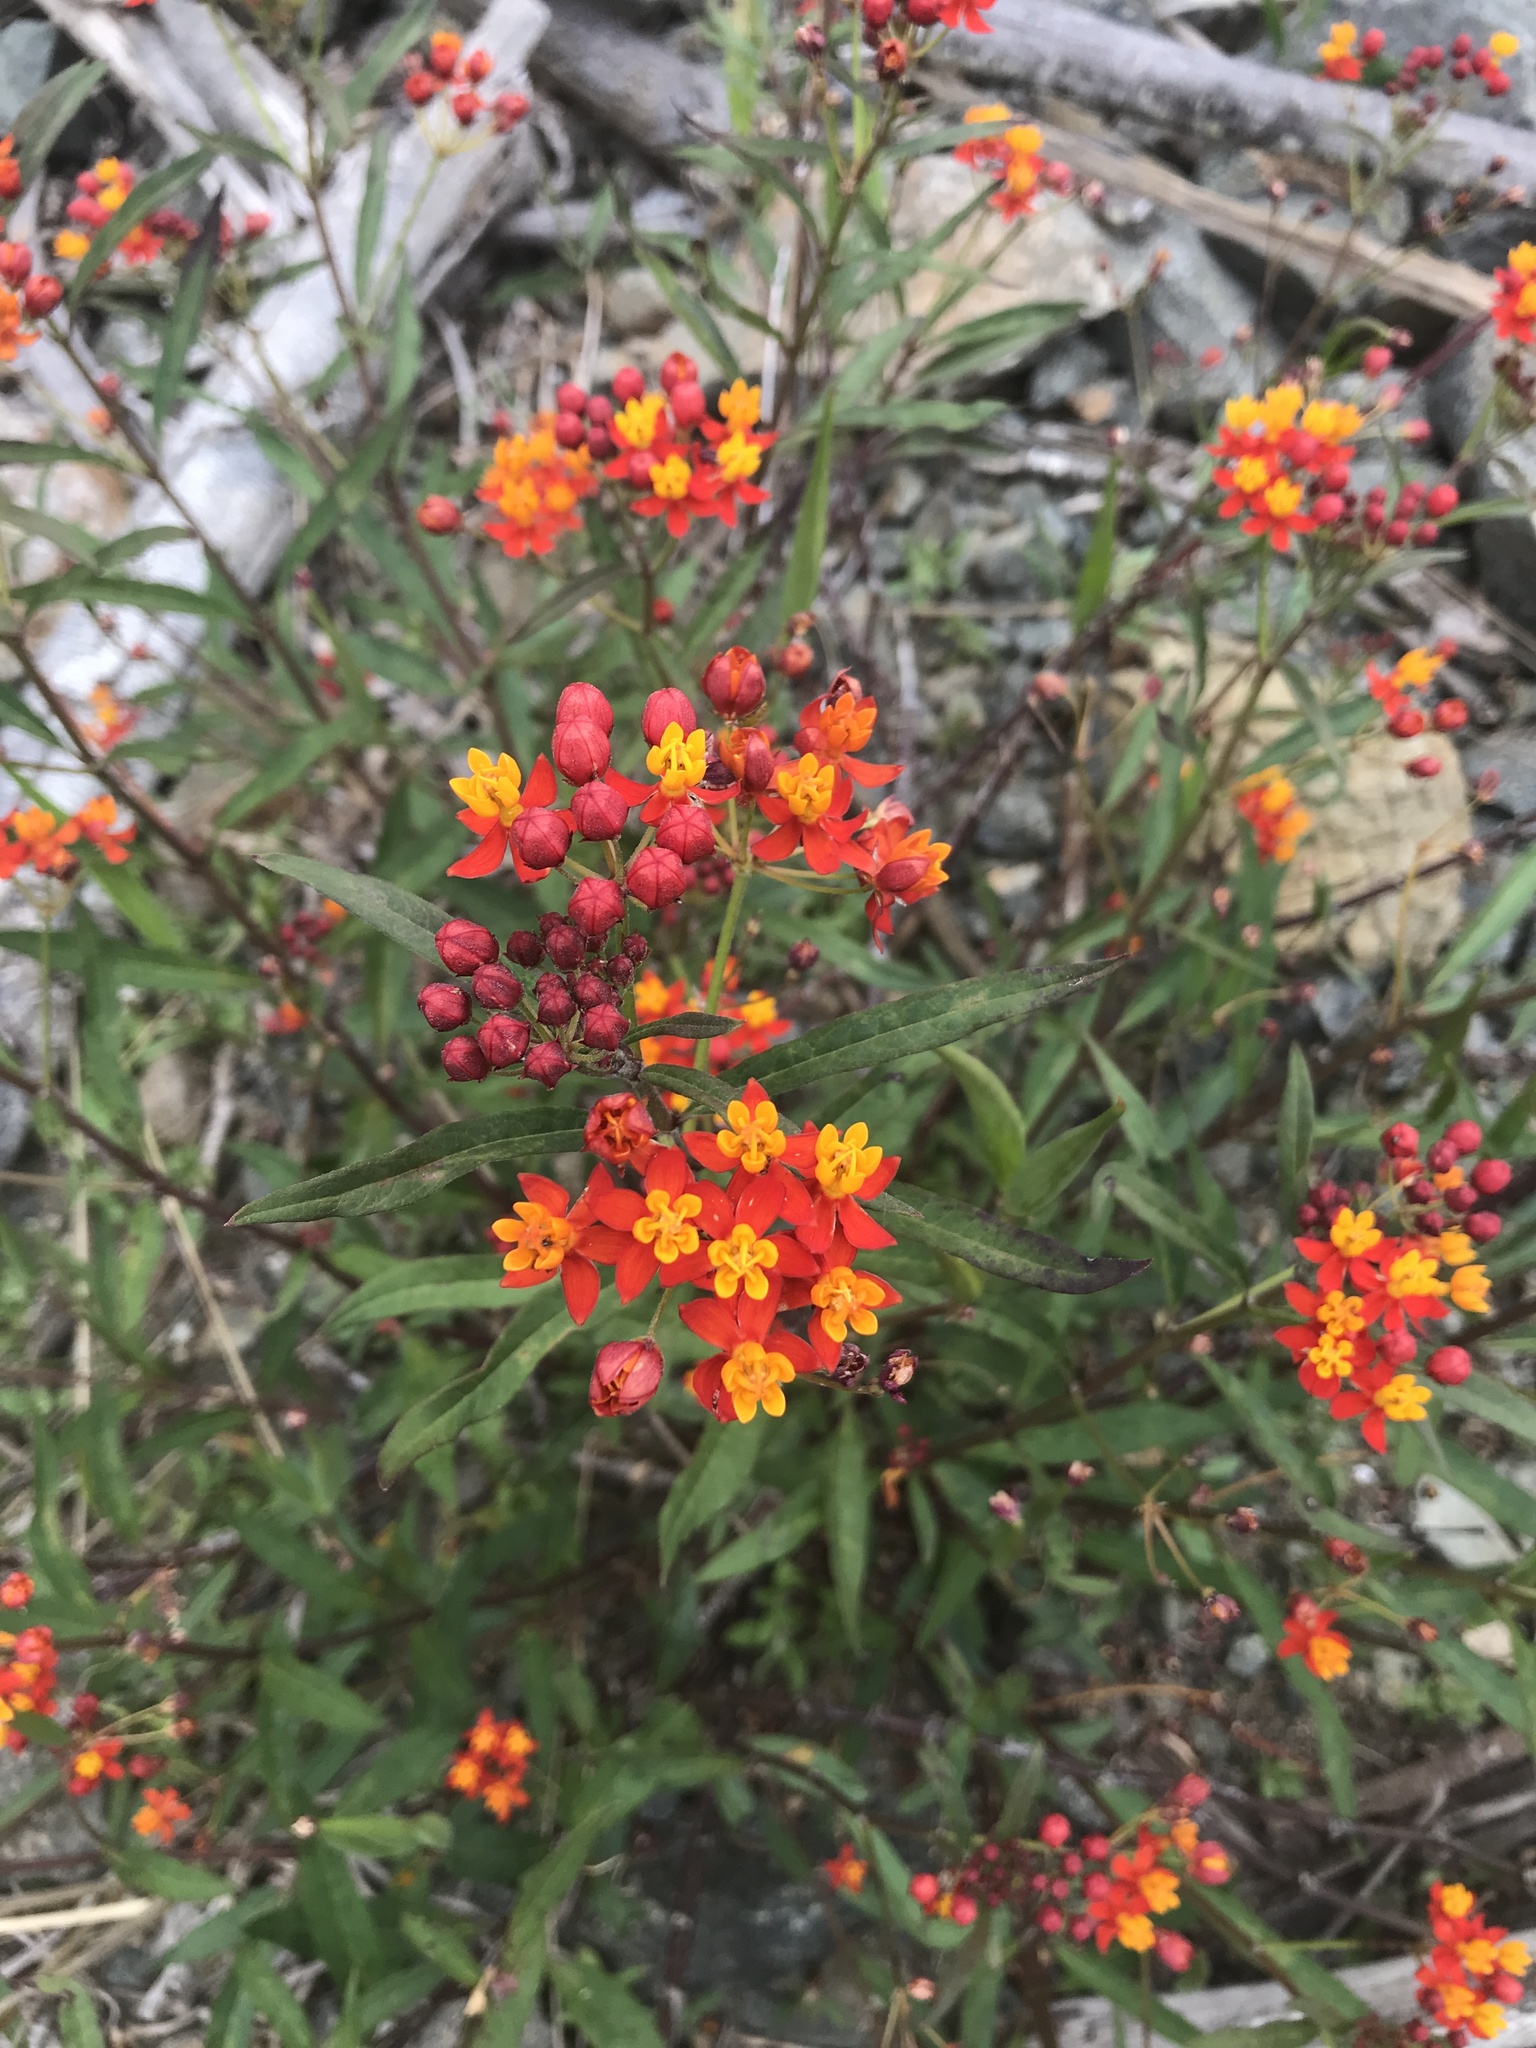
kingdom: Plantae
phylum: Tracheophyta
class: Magnoliopsida
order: Gentianales
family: Apocynaceae
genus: Asclepias
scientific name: Asclepias curassavica
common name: Bloodflower
